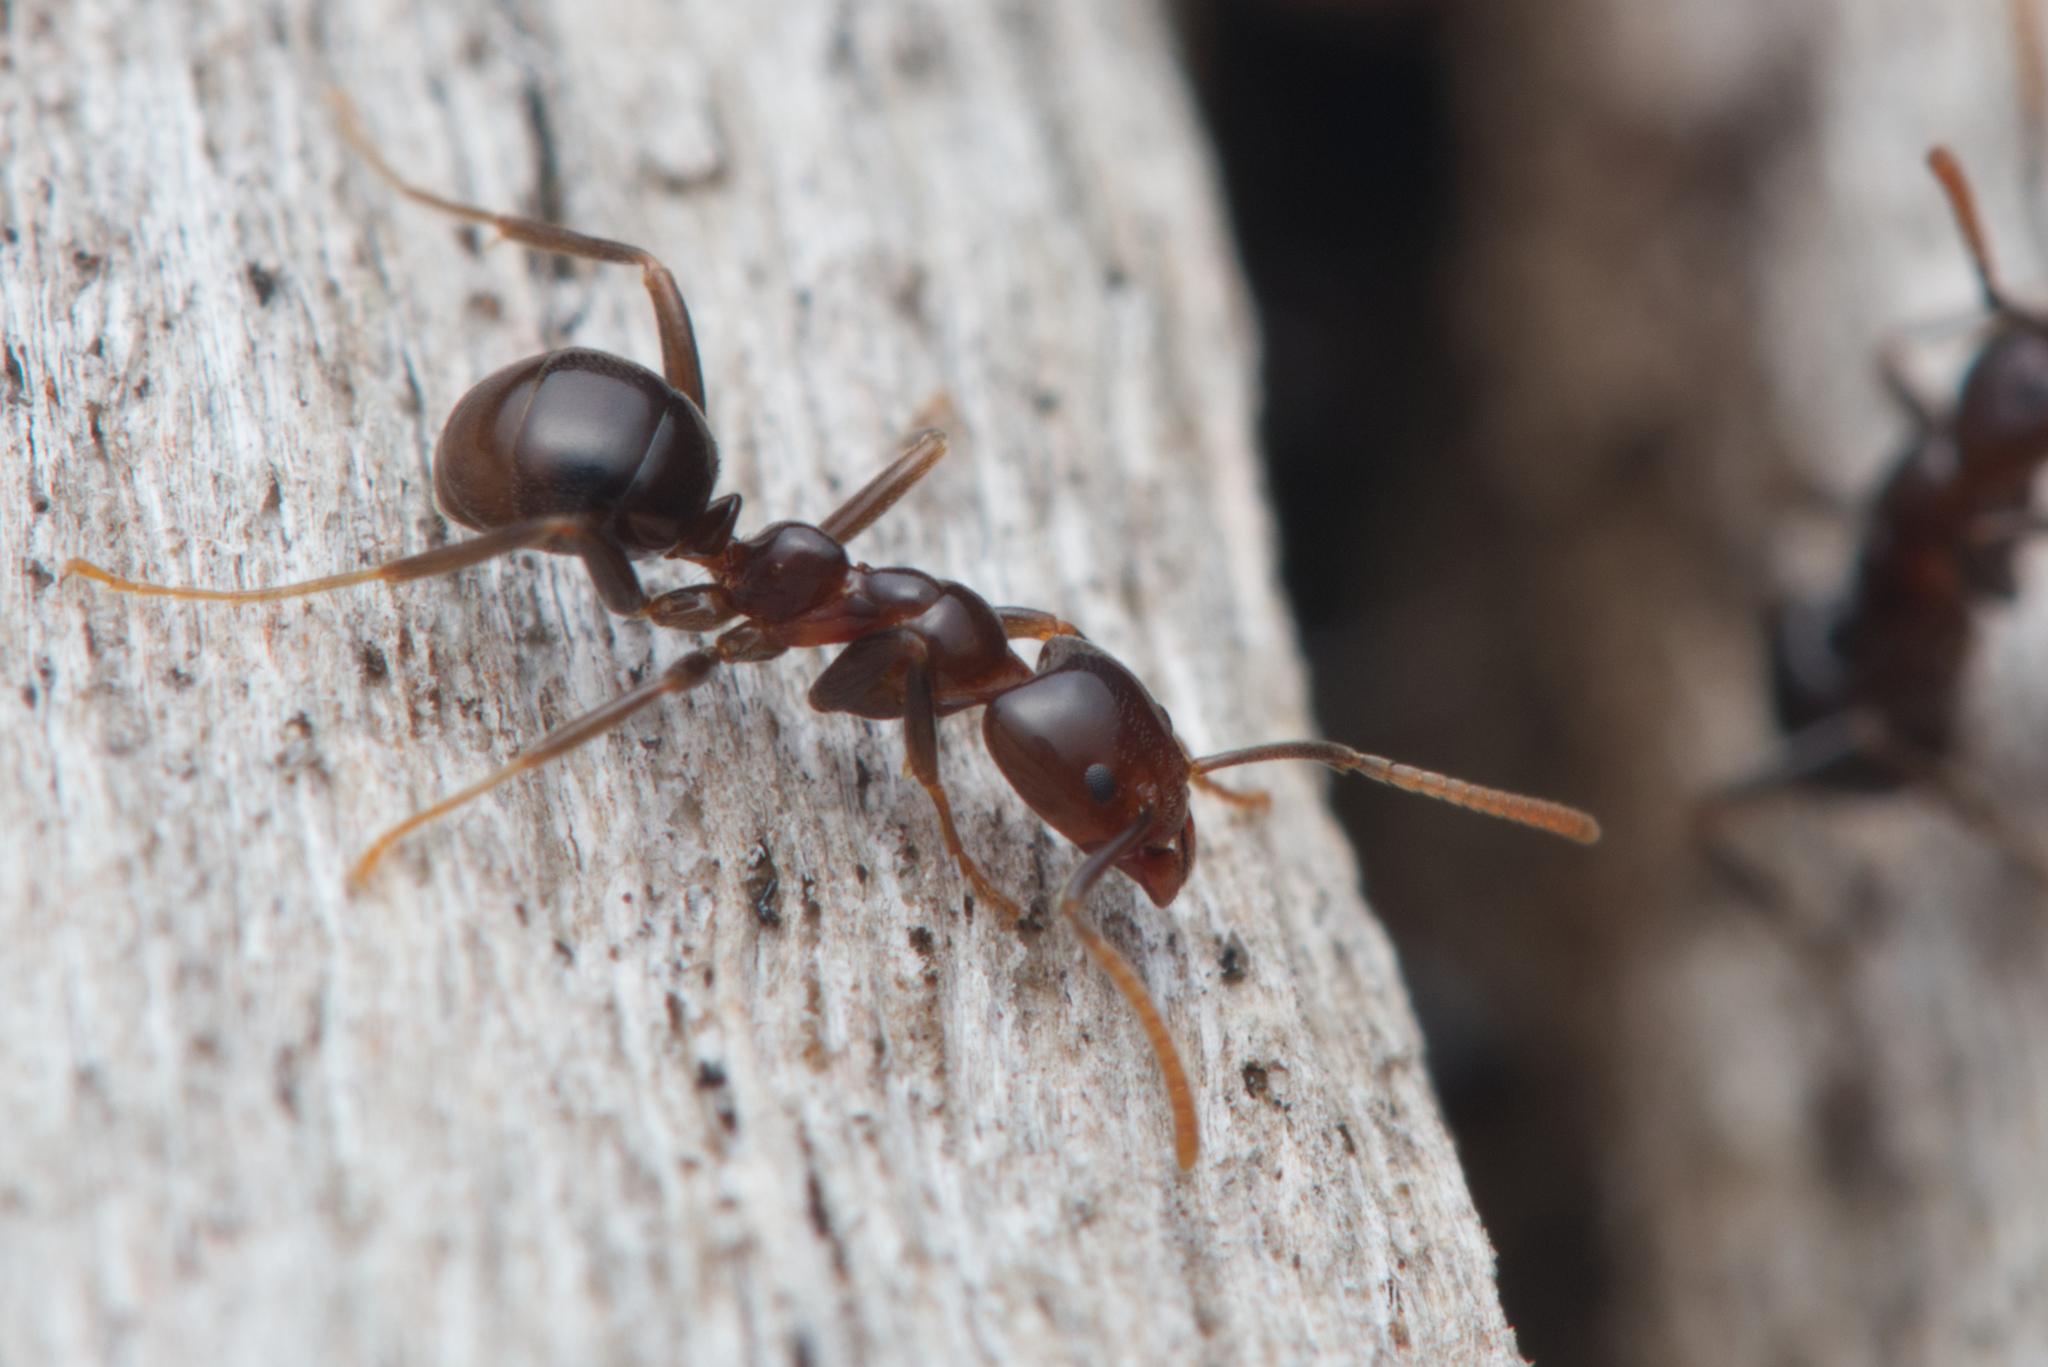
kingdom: Animalia
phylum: Arthropoda
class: Insecta
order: Hymenoptera
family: Formicidae
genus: Papyrius
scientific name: Papyrius nitidus
